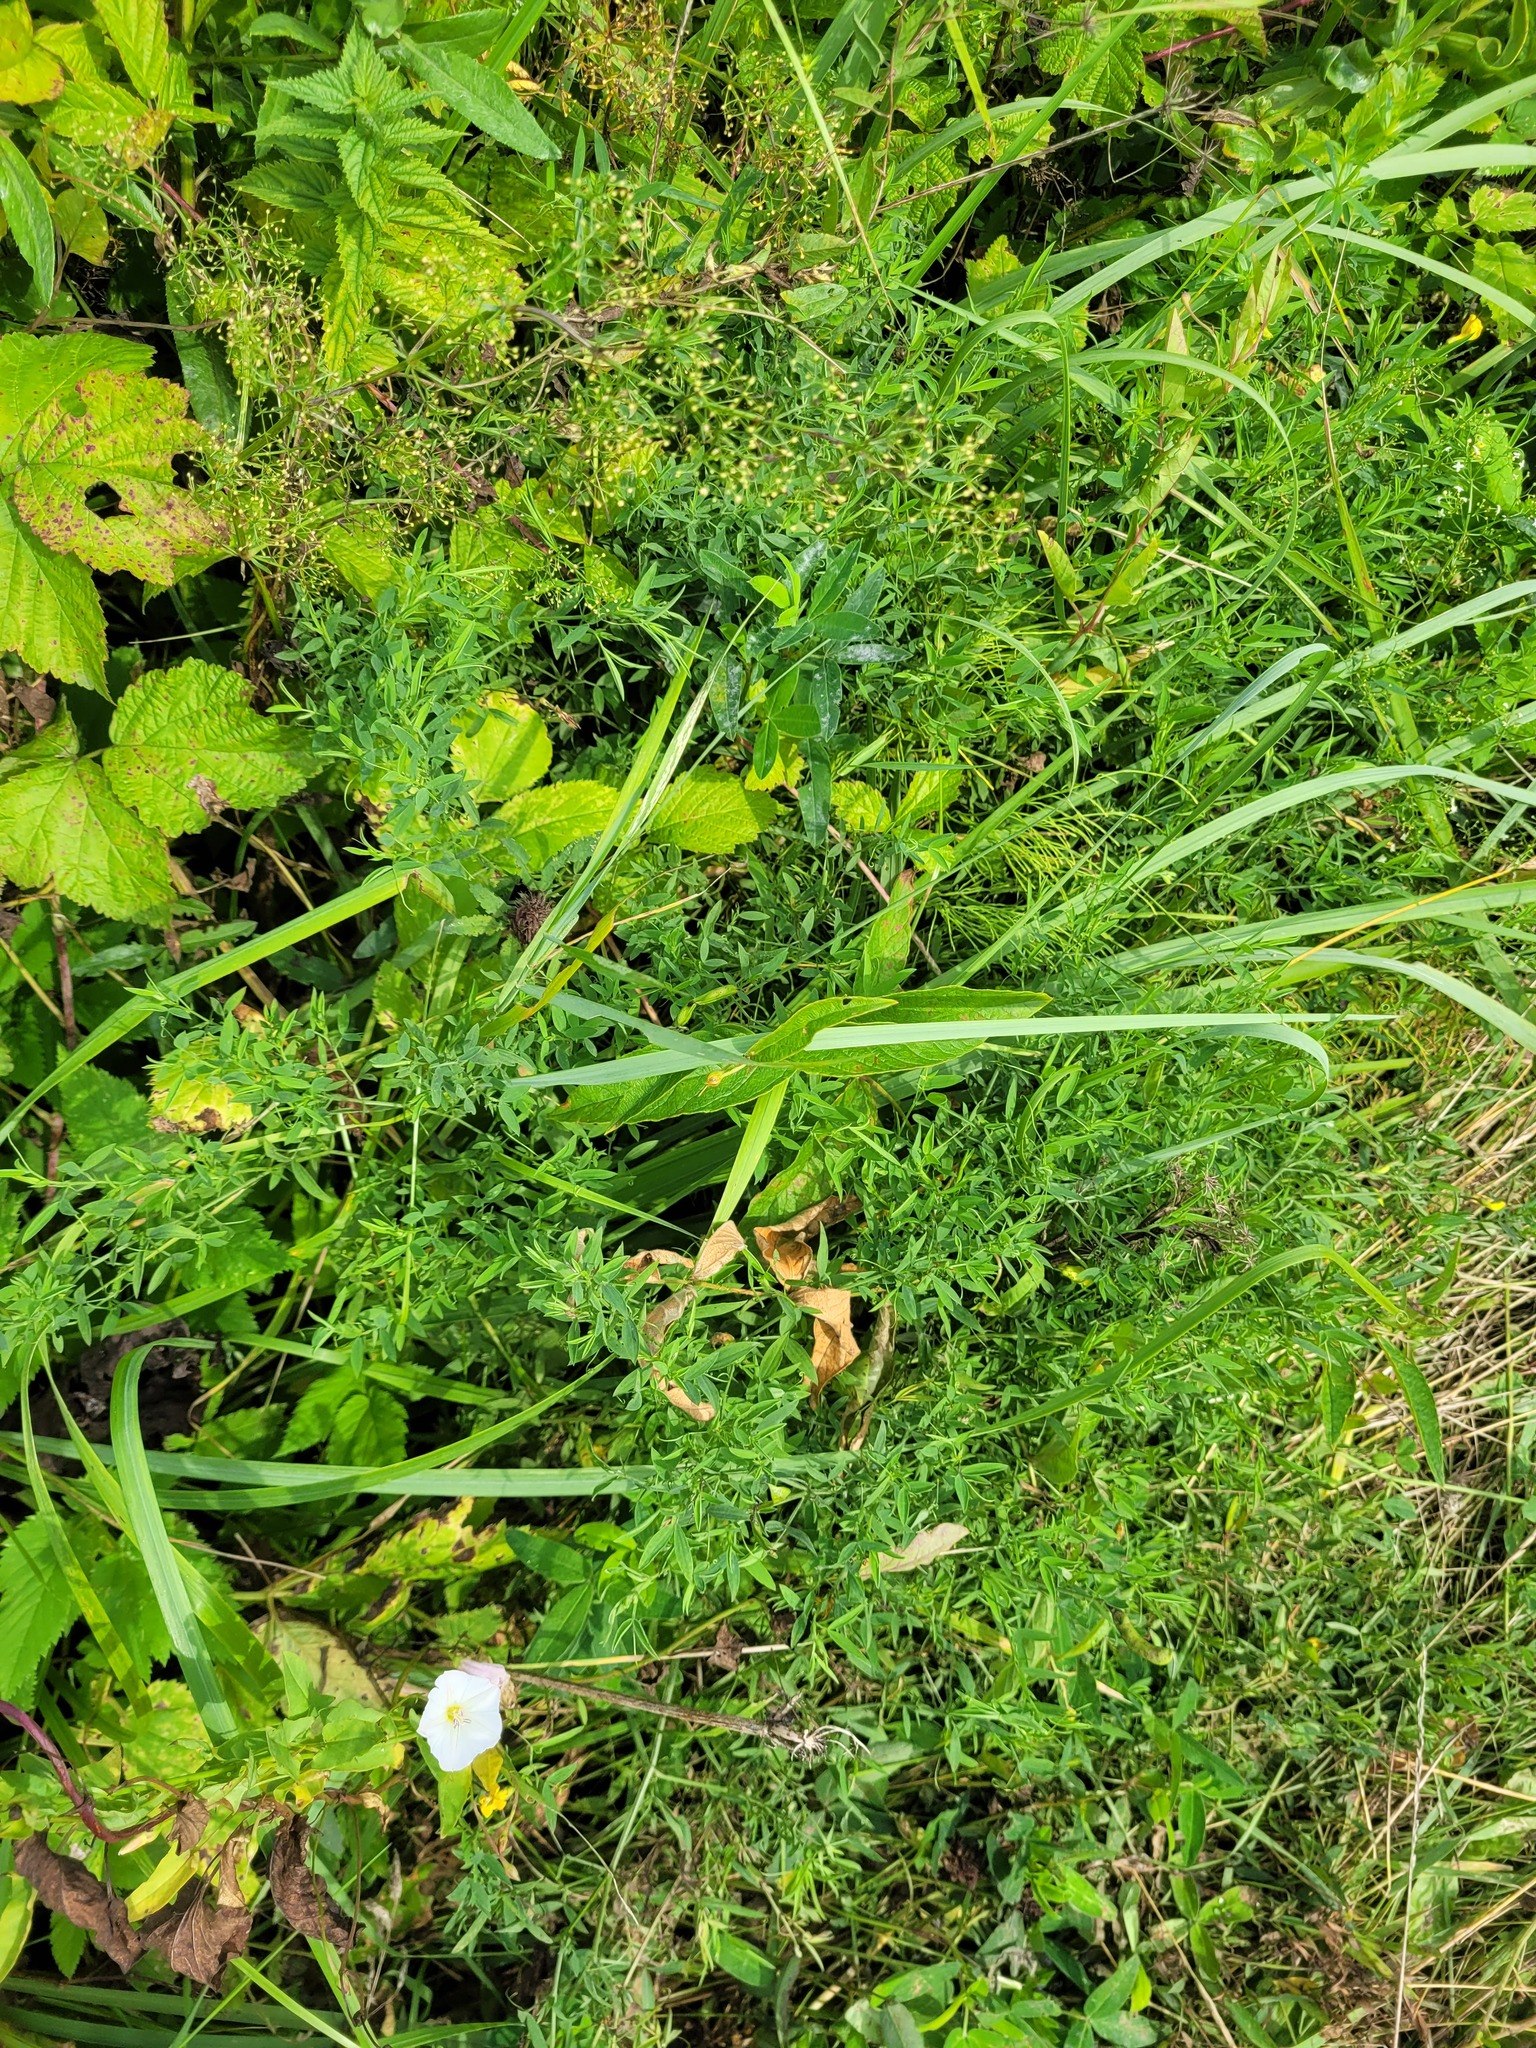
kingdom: Plantae
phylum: Tracheophyta
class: Magnoliopsida
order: Fabales
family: Fabaceae
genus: Lathyrus
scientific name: Lathyrus pratensis
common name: Meadow vetchling
